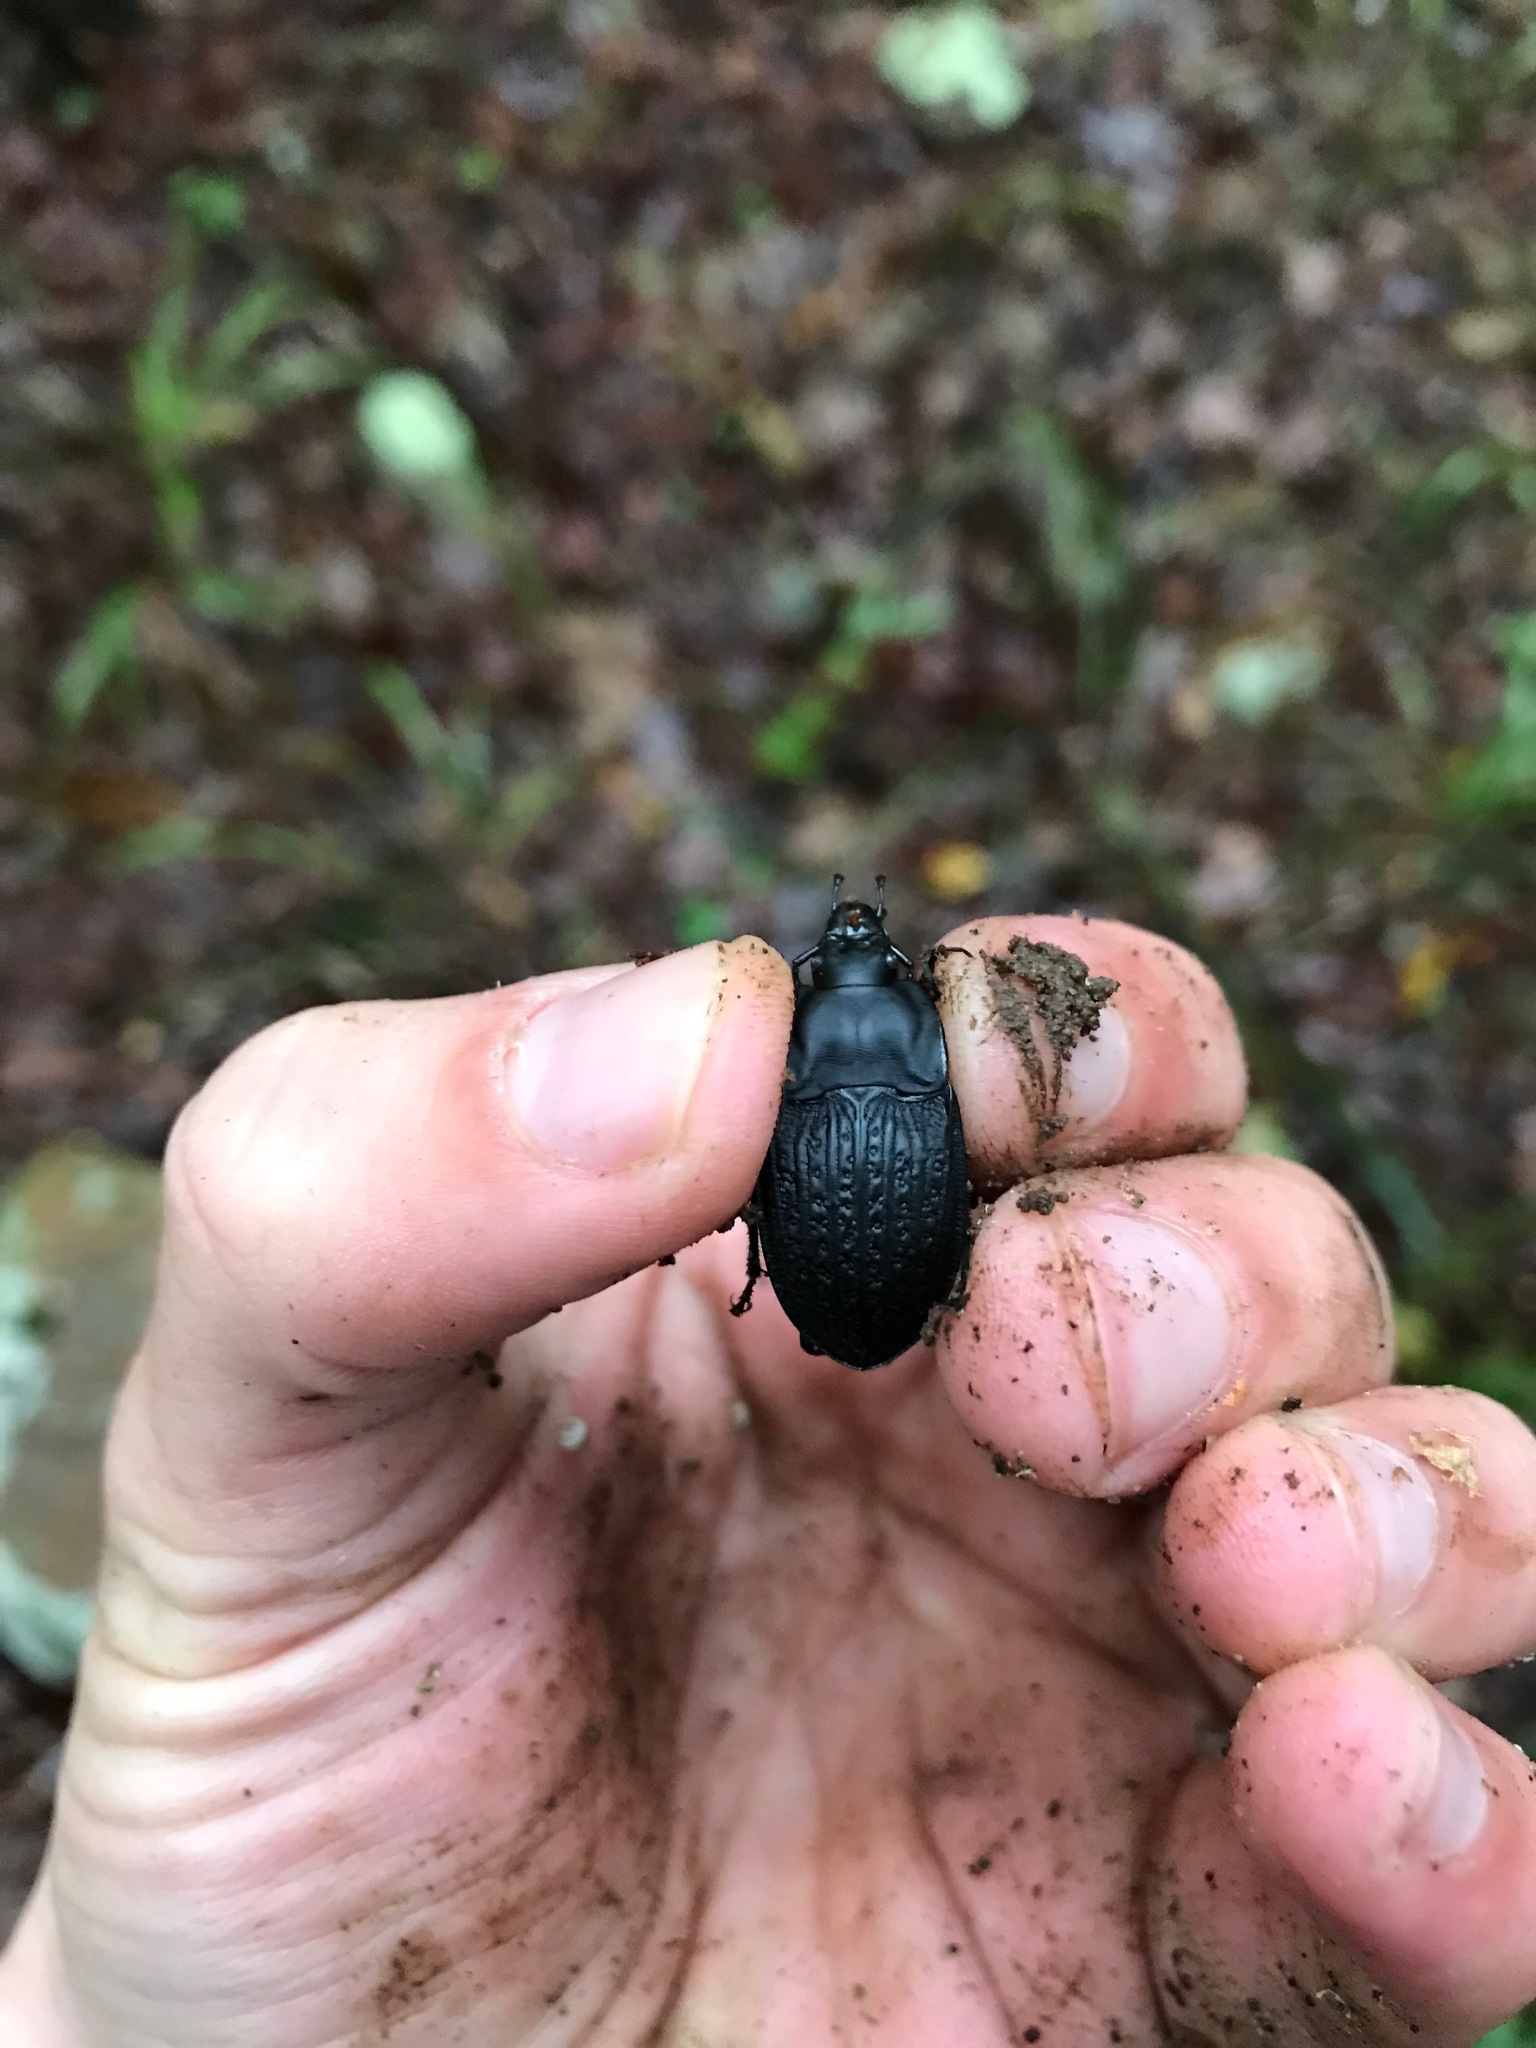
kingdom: Animalia
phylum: Arthropoda
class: Insecta
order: Coleoptera
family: Carabidae
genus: Dicaelus
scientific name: Dicaelus sculptilis
